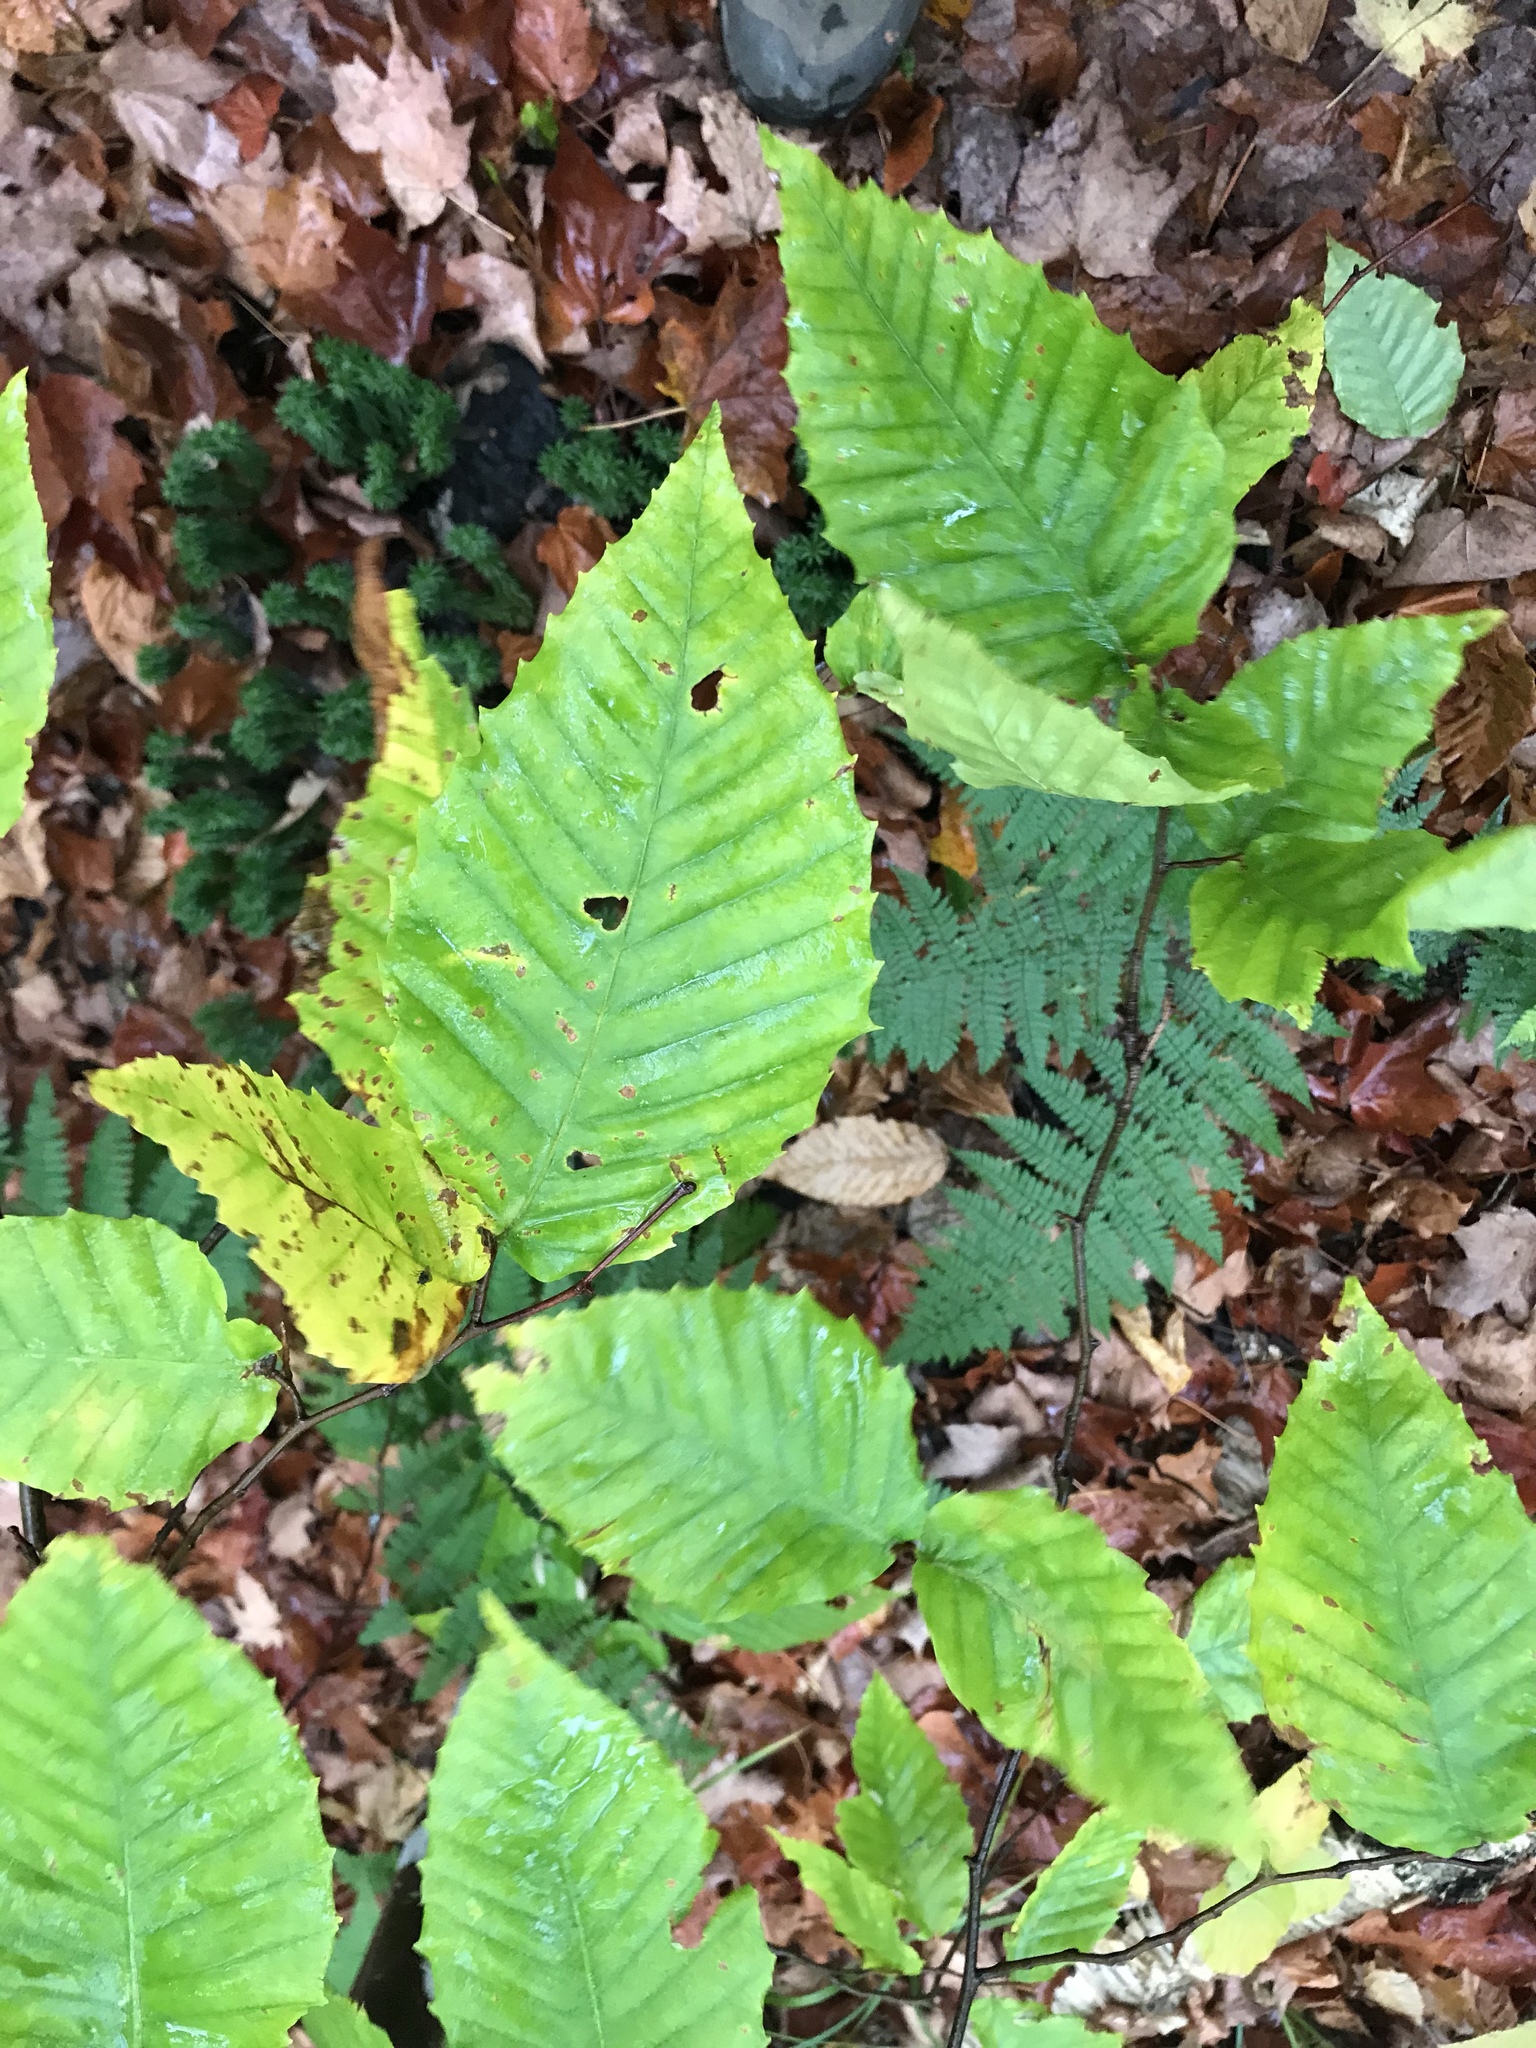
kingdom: Plantae
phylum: Tracheophyta
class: Magnoliopsida
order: Fagales
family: Fagaceae
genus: Fagus
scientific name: Fagus grandifolia
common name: American beech
